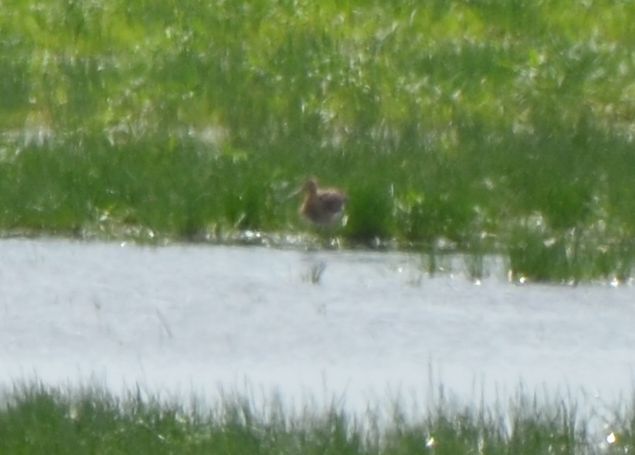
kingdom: Animalia
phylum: Chordata
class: Aves
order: Charadriiformes
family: Scolopacidae
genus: Limosa
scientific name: Limosa limosa
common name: Black-tailed godwit
